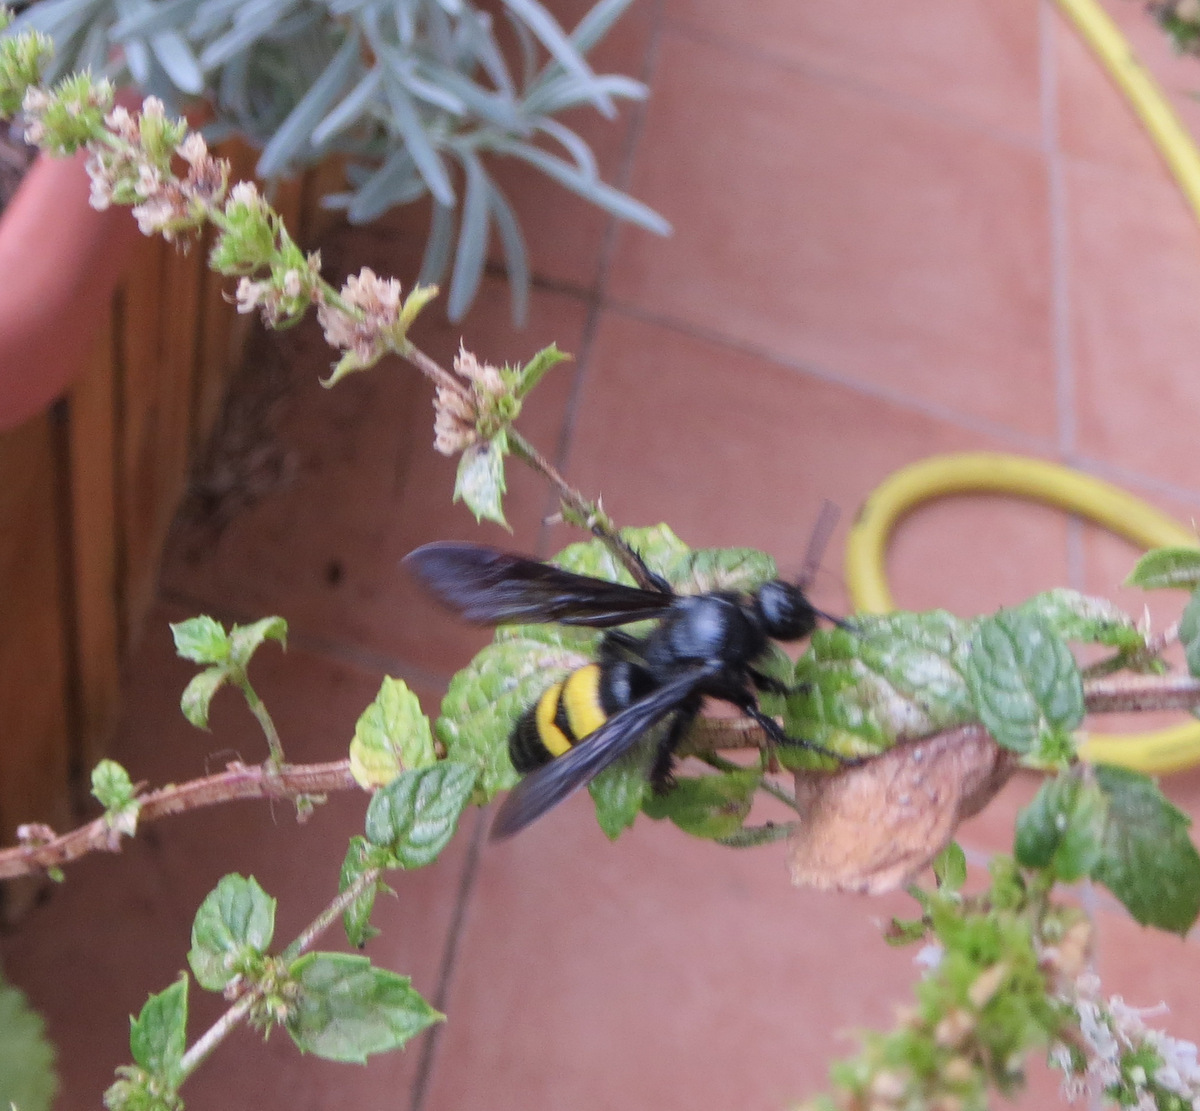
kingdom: Animalia
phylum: Arthropoda
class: Insecta
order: Hymenoptera
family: Scoliidae
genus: Scolia
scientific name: Scolia hirta
